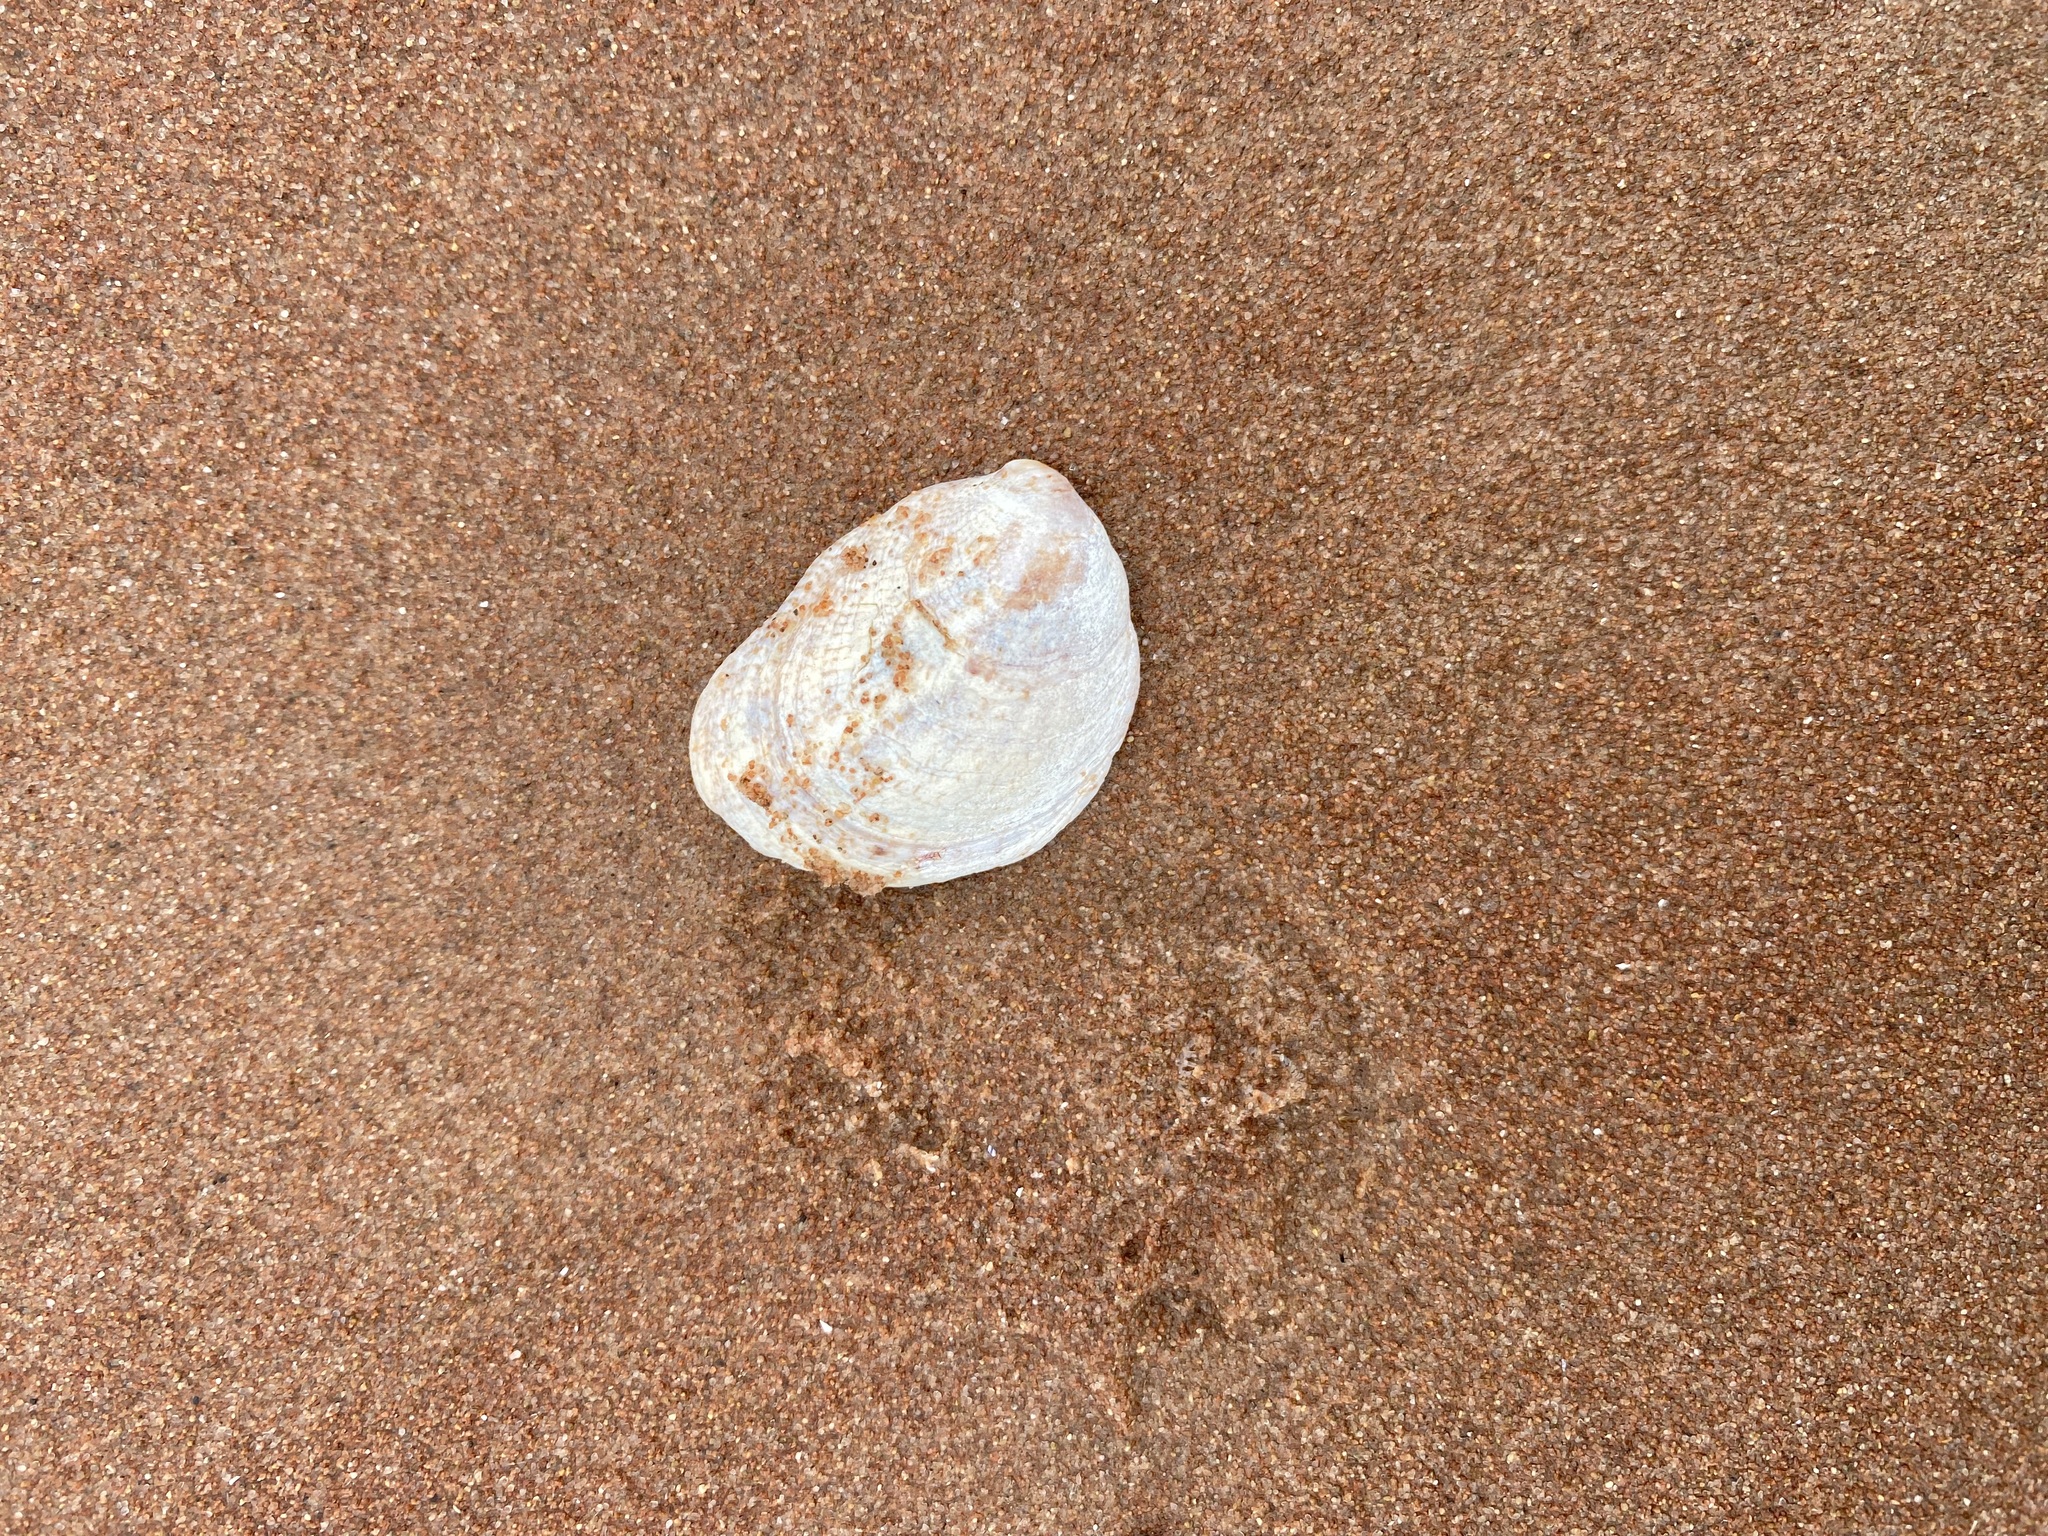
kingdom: Animalia
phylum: Mollusca
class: Gastropoda
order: Littorinimorpha
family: Calyptraeidae
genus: Crepidula
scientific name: Crepidula fornicata
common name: Slipper limpet
